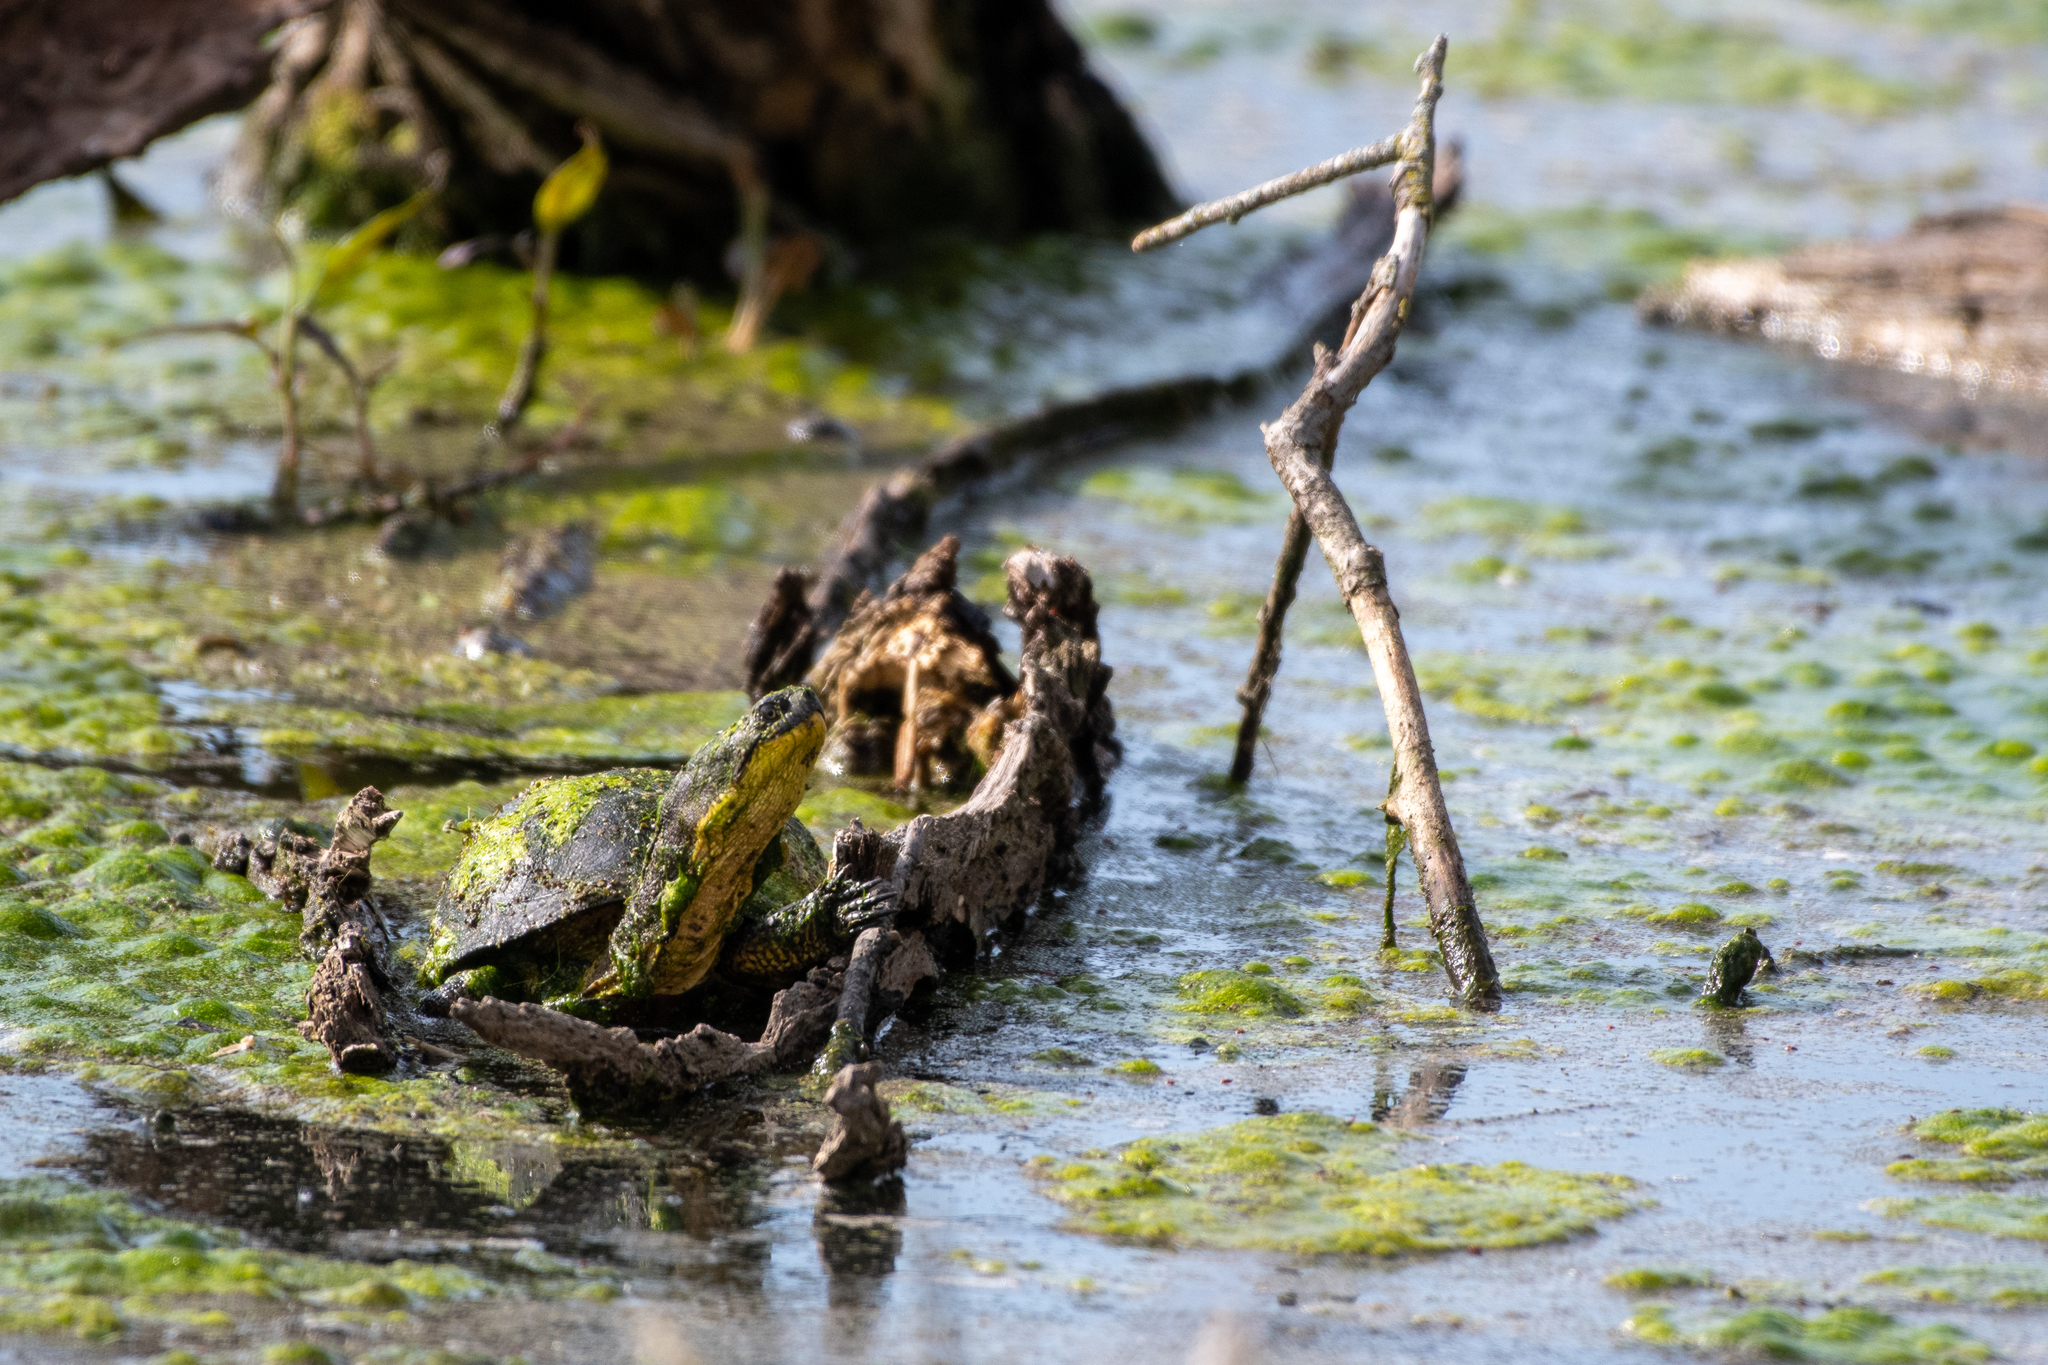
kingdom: Animalia
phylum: Chordata
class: Testudines
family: Emydidae
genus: Emys
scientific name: Emys blandingii
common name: Blanding's turtle
